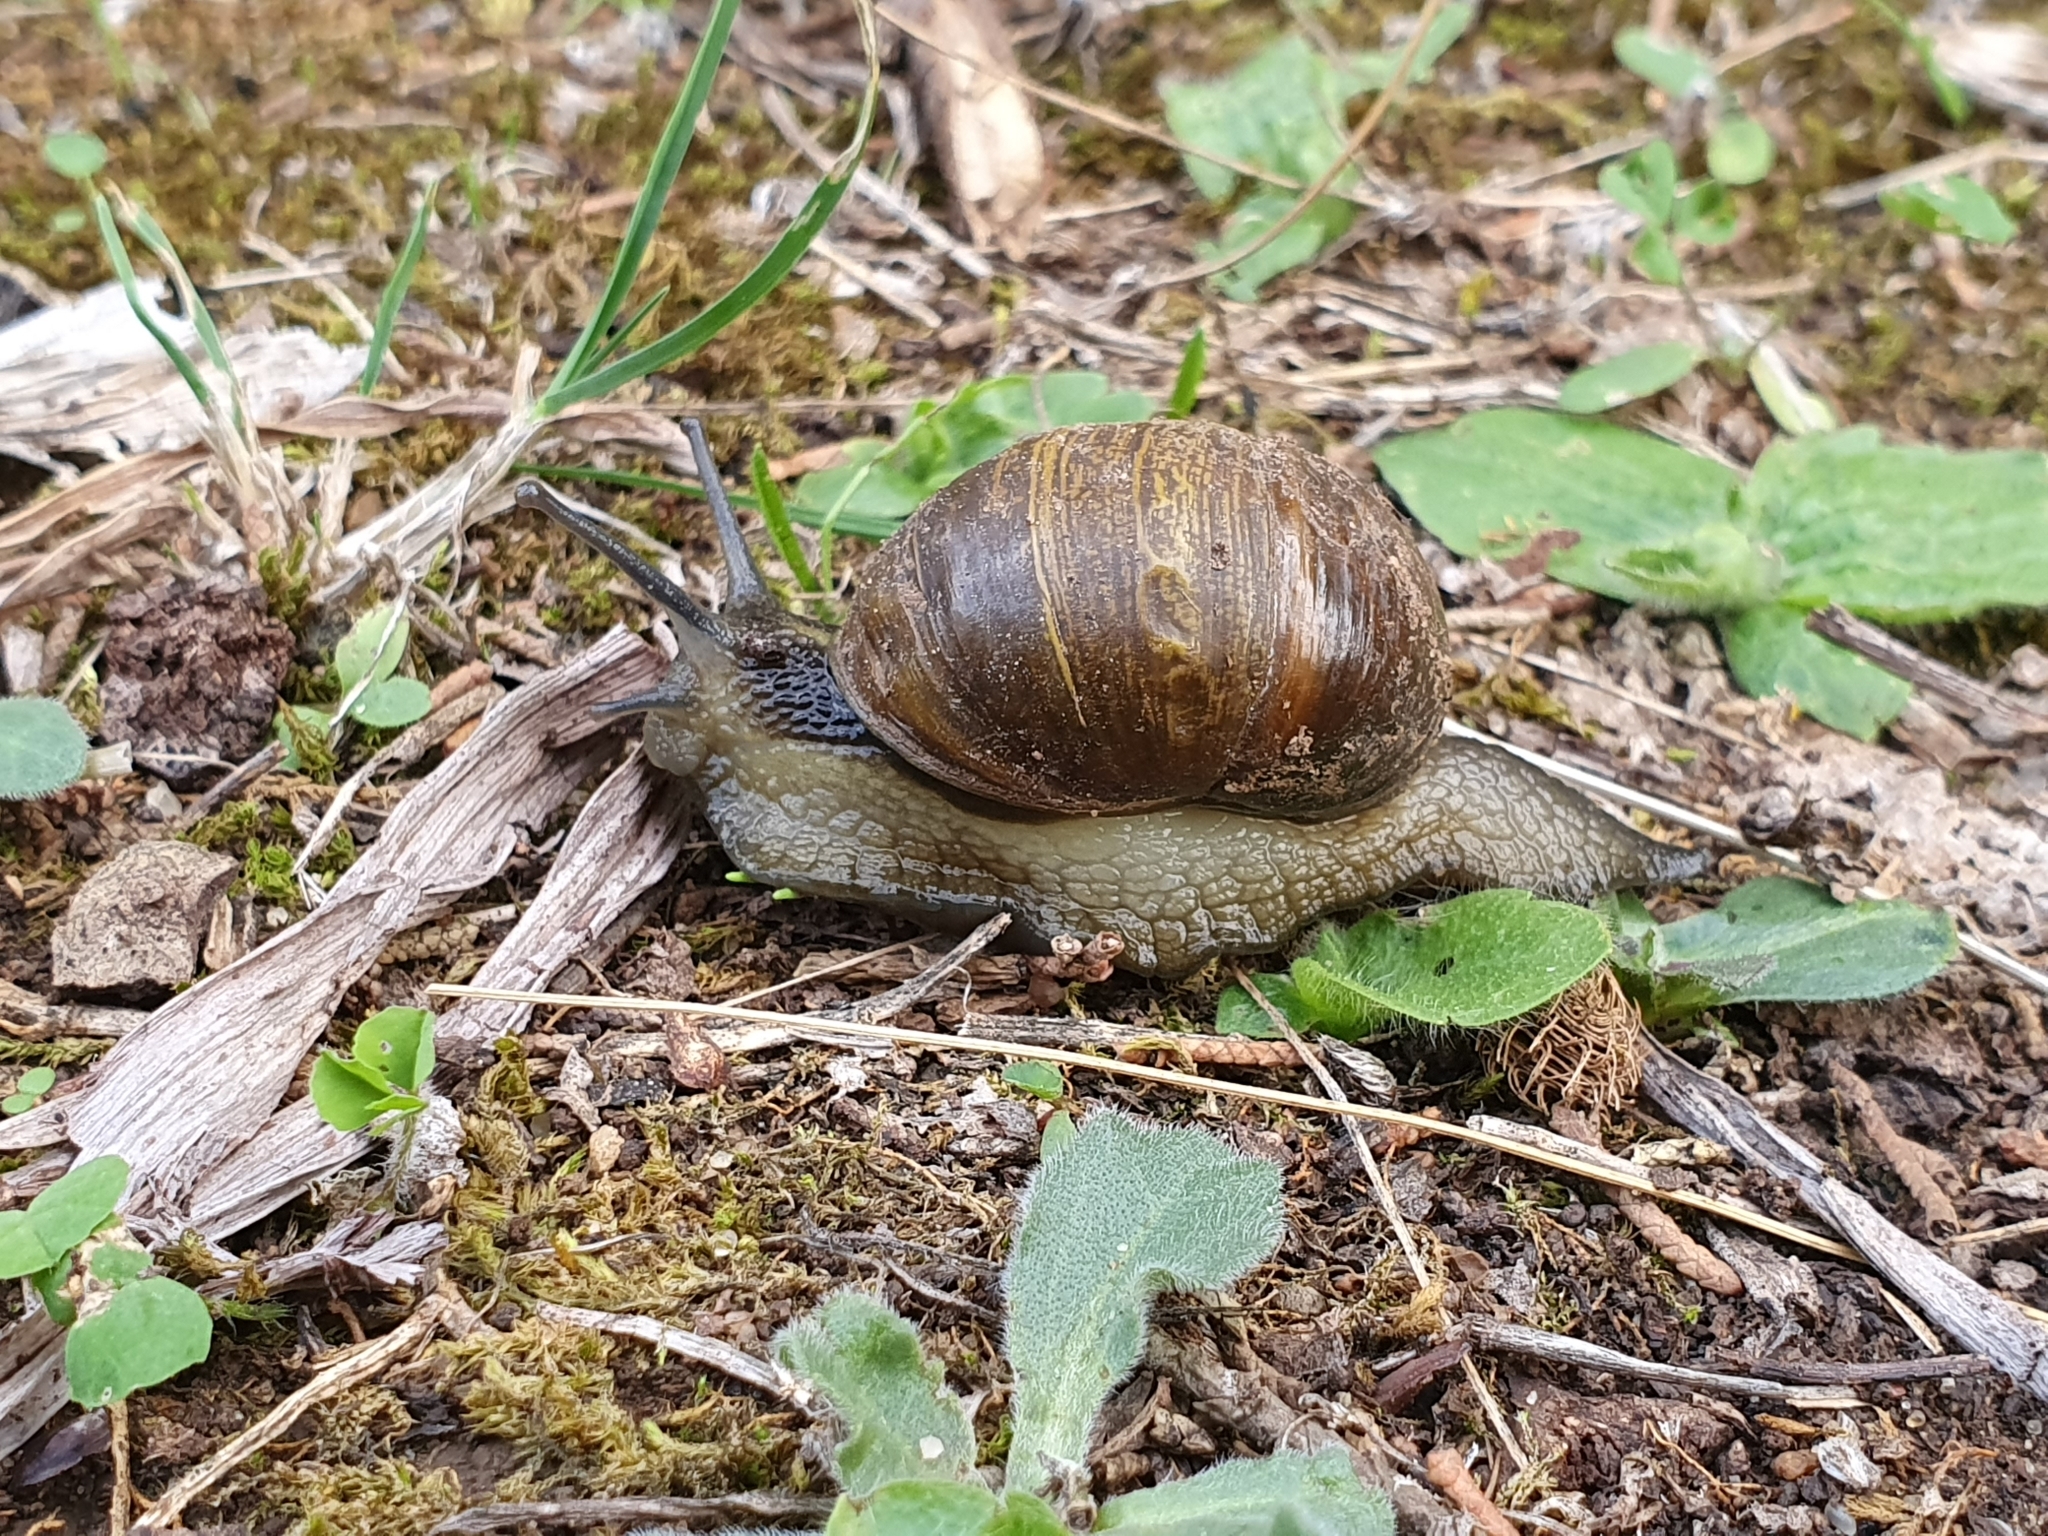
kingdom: Animalia
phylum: Mollusca
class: Gastropoda
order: Stylommatophora
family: Helicidae
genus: Cantareus
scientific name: Cantareus apertus
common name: Green gardensnail
